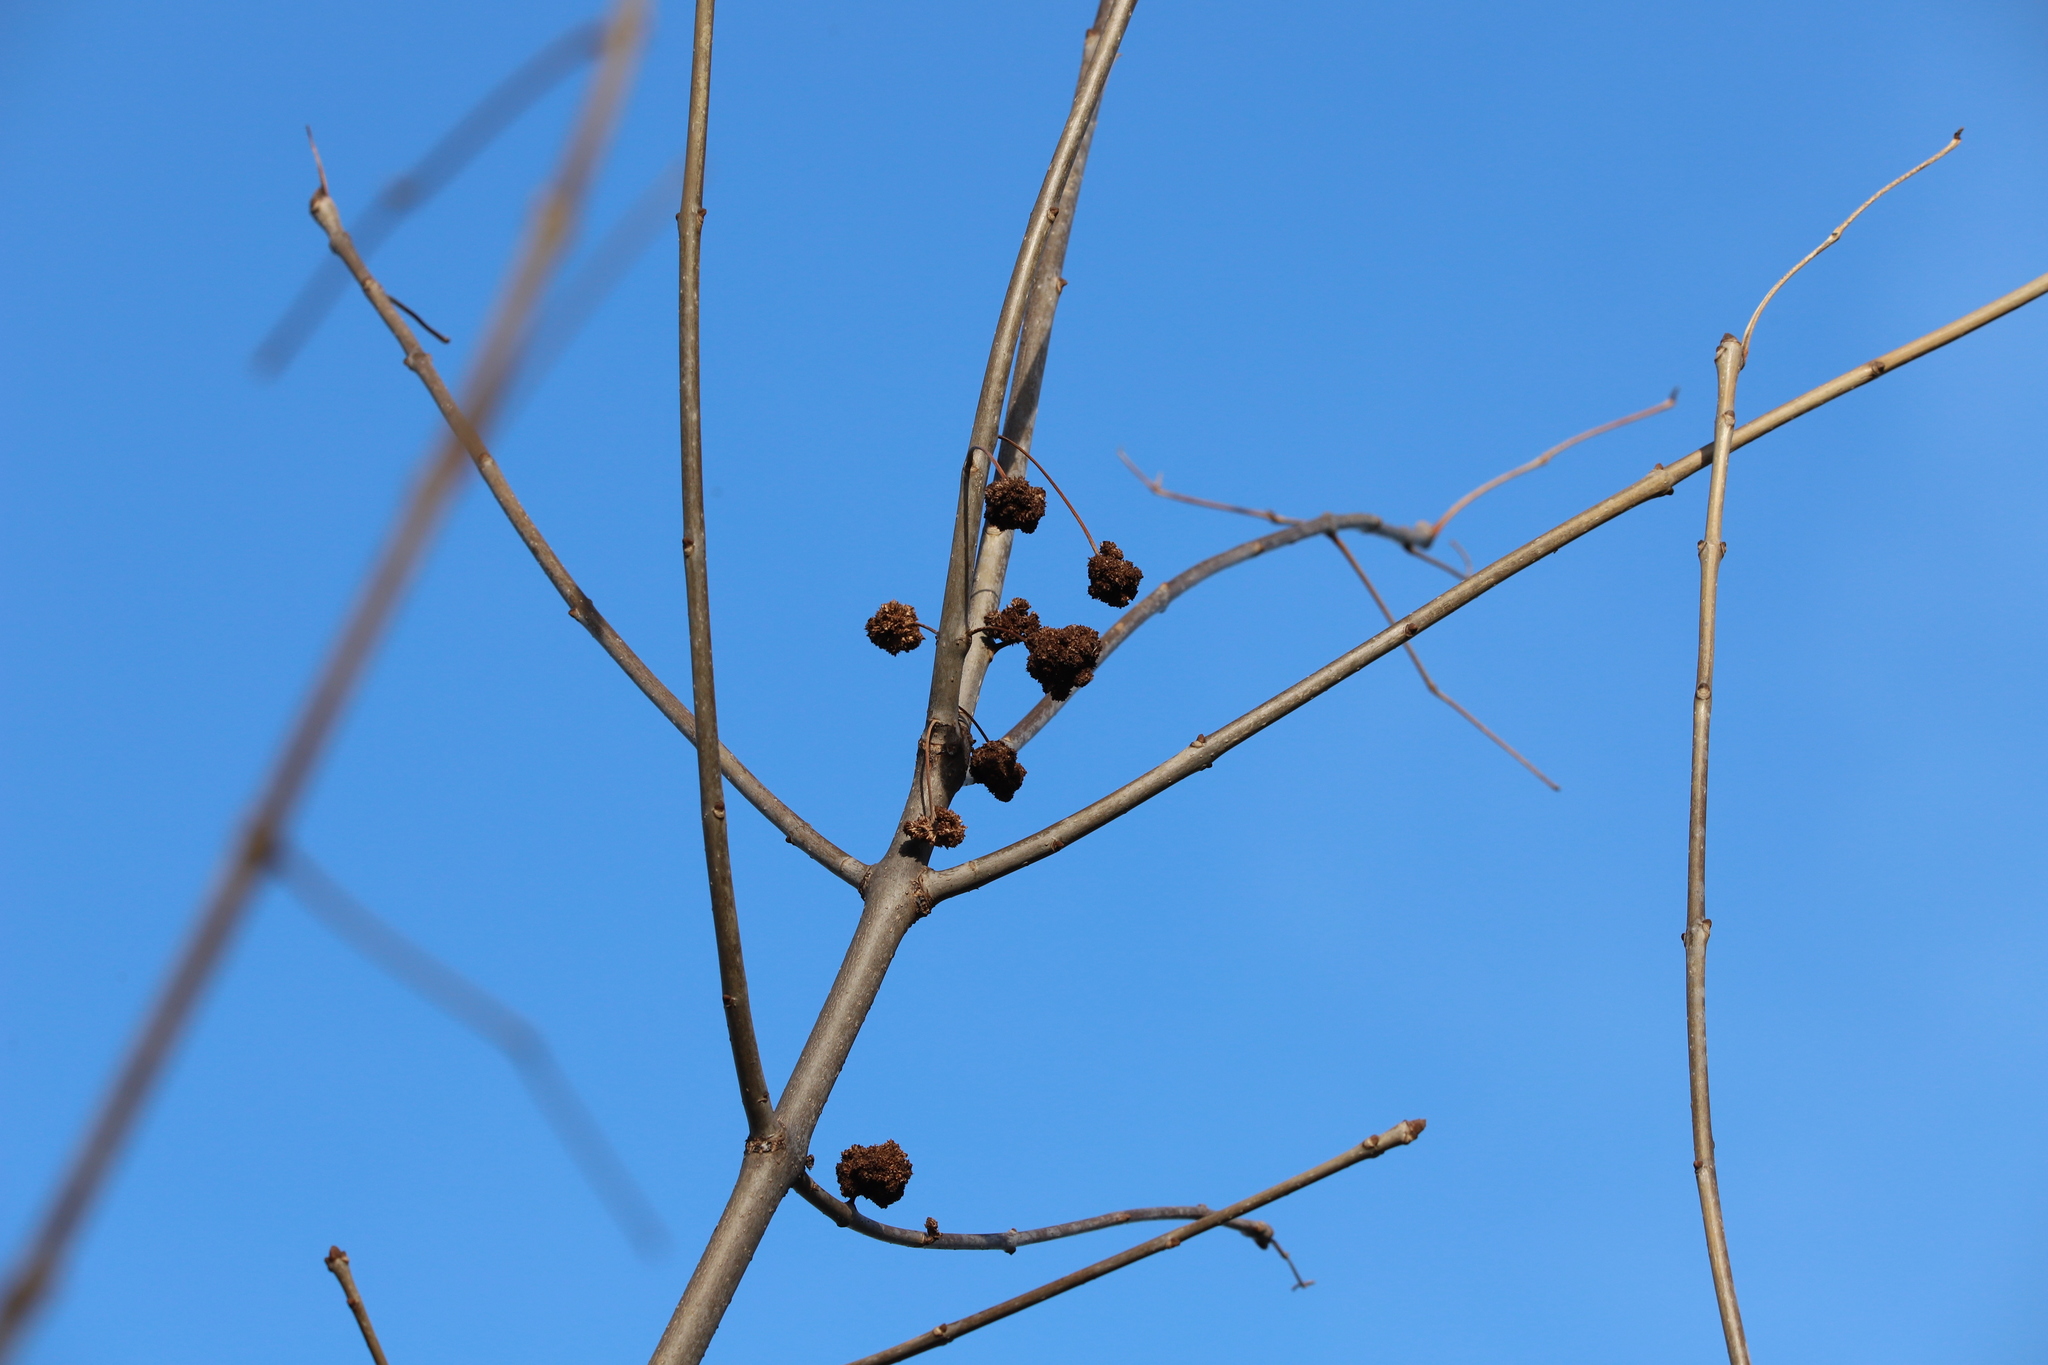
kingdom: Animalia
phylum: Arthropoda
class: Arachnida
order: Trombidiformes
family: Eriophyidae
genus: Aceria
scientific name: Aceria fraxiniflora
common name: Ash flower gall mite
